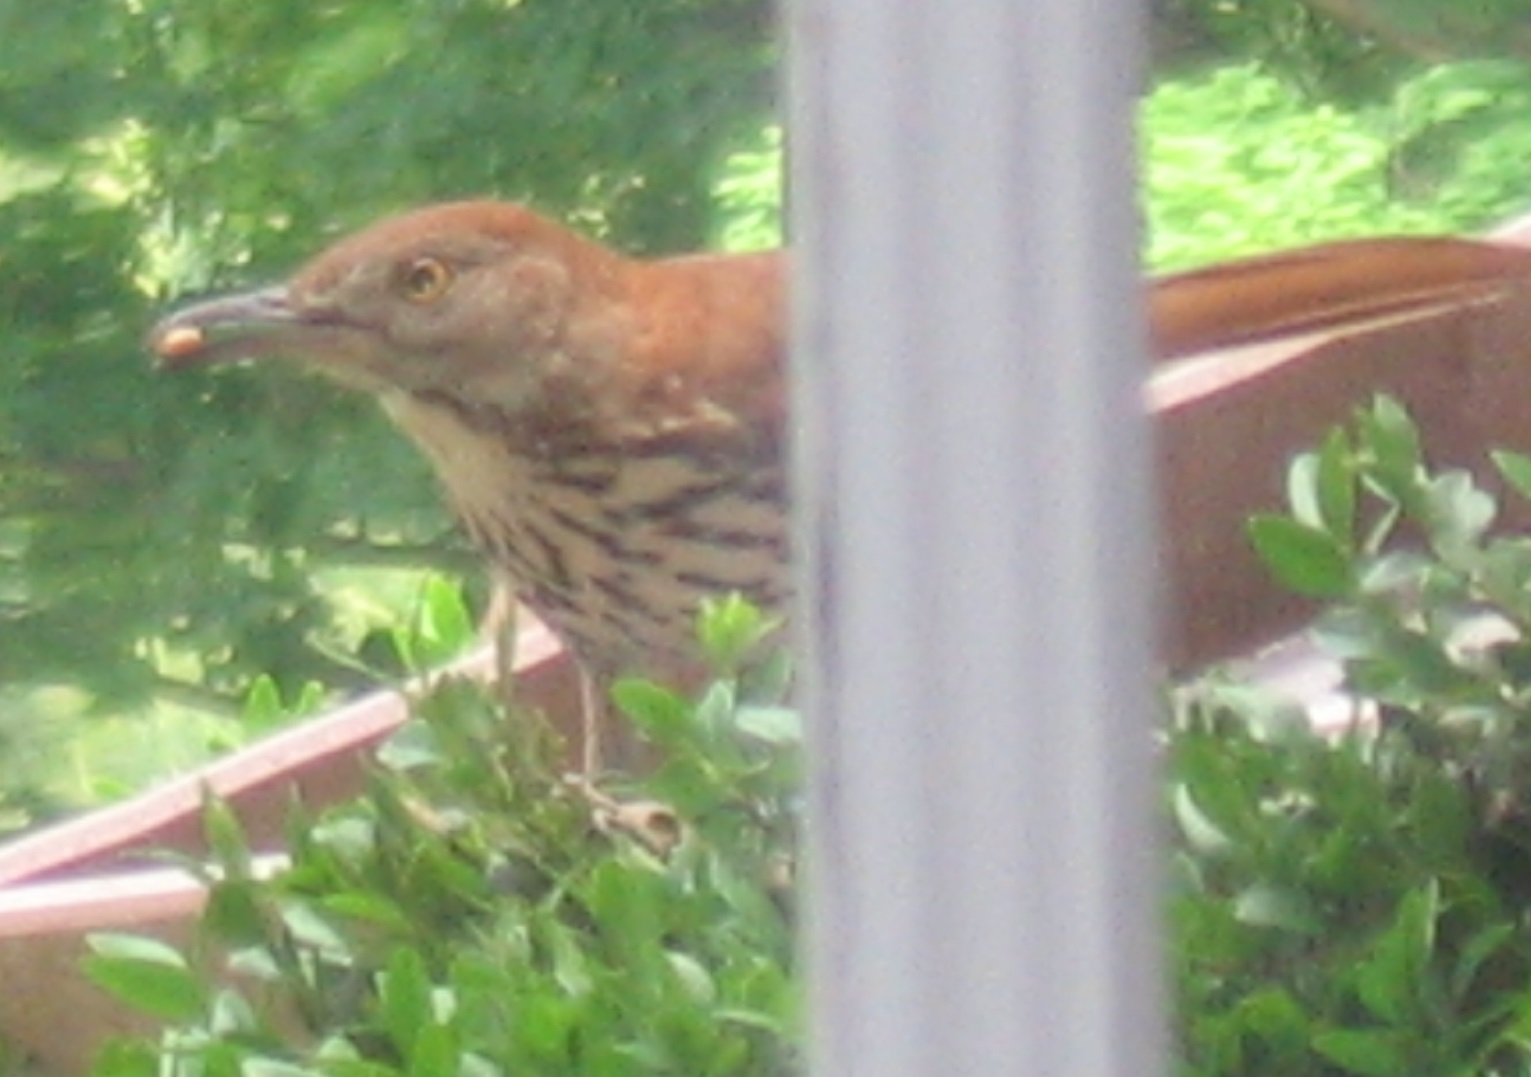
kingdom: Animalia
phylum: Chordata
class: Aves
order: Passeriformes
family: Mimidae
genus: Toxostoma
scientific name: Toxostoma rufum
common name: Brown thrasher
